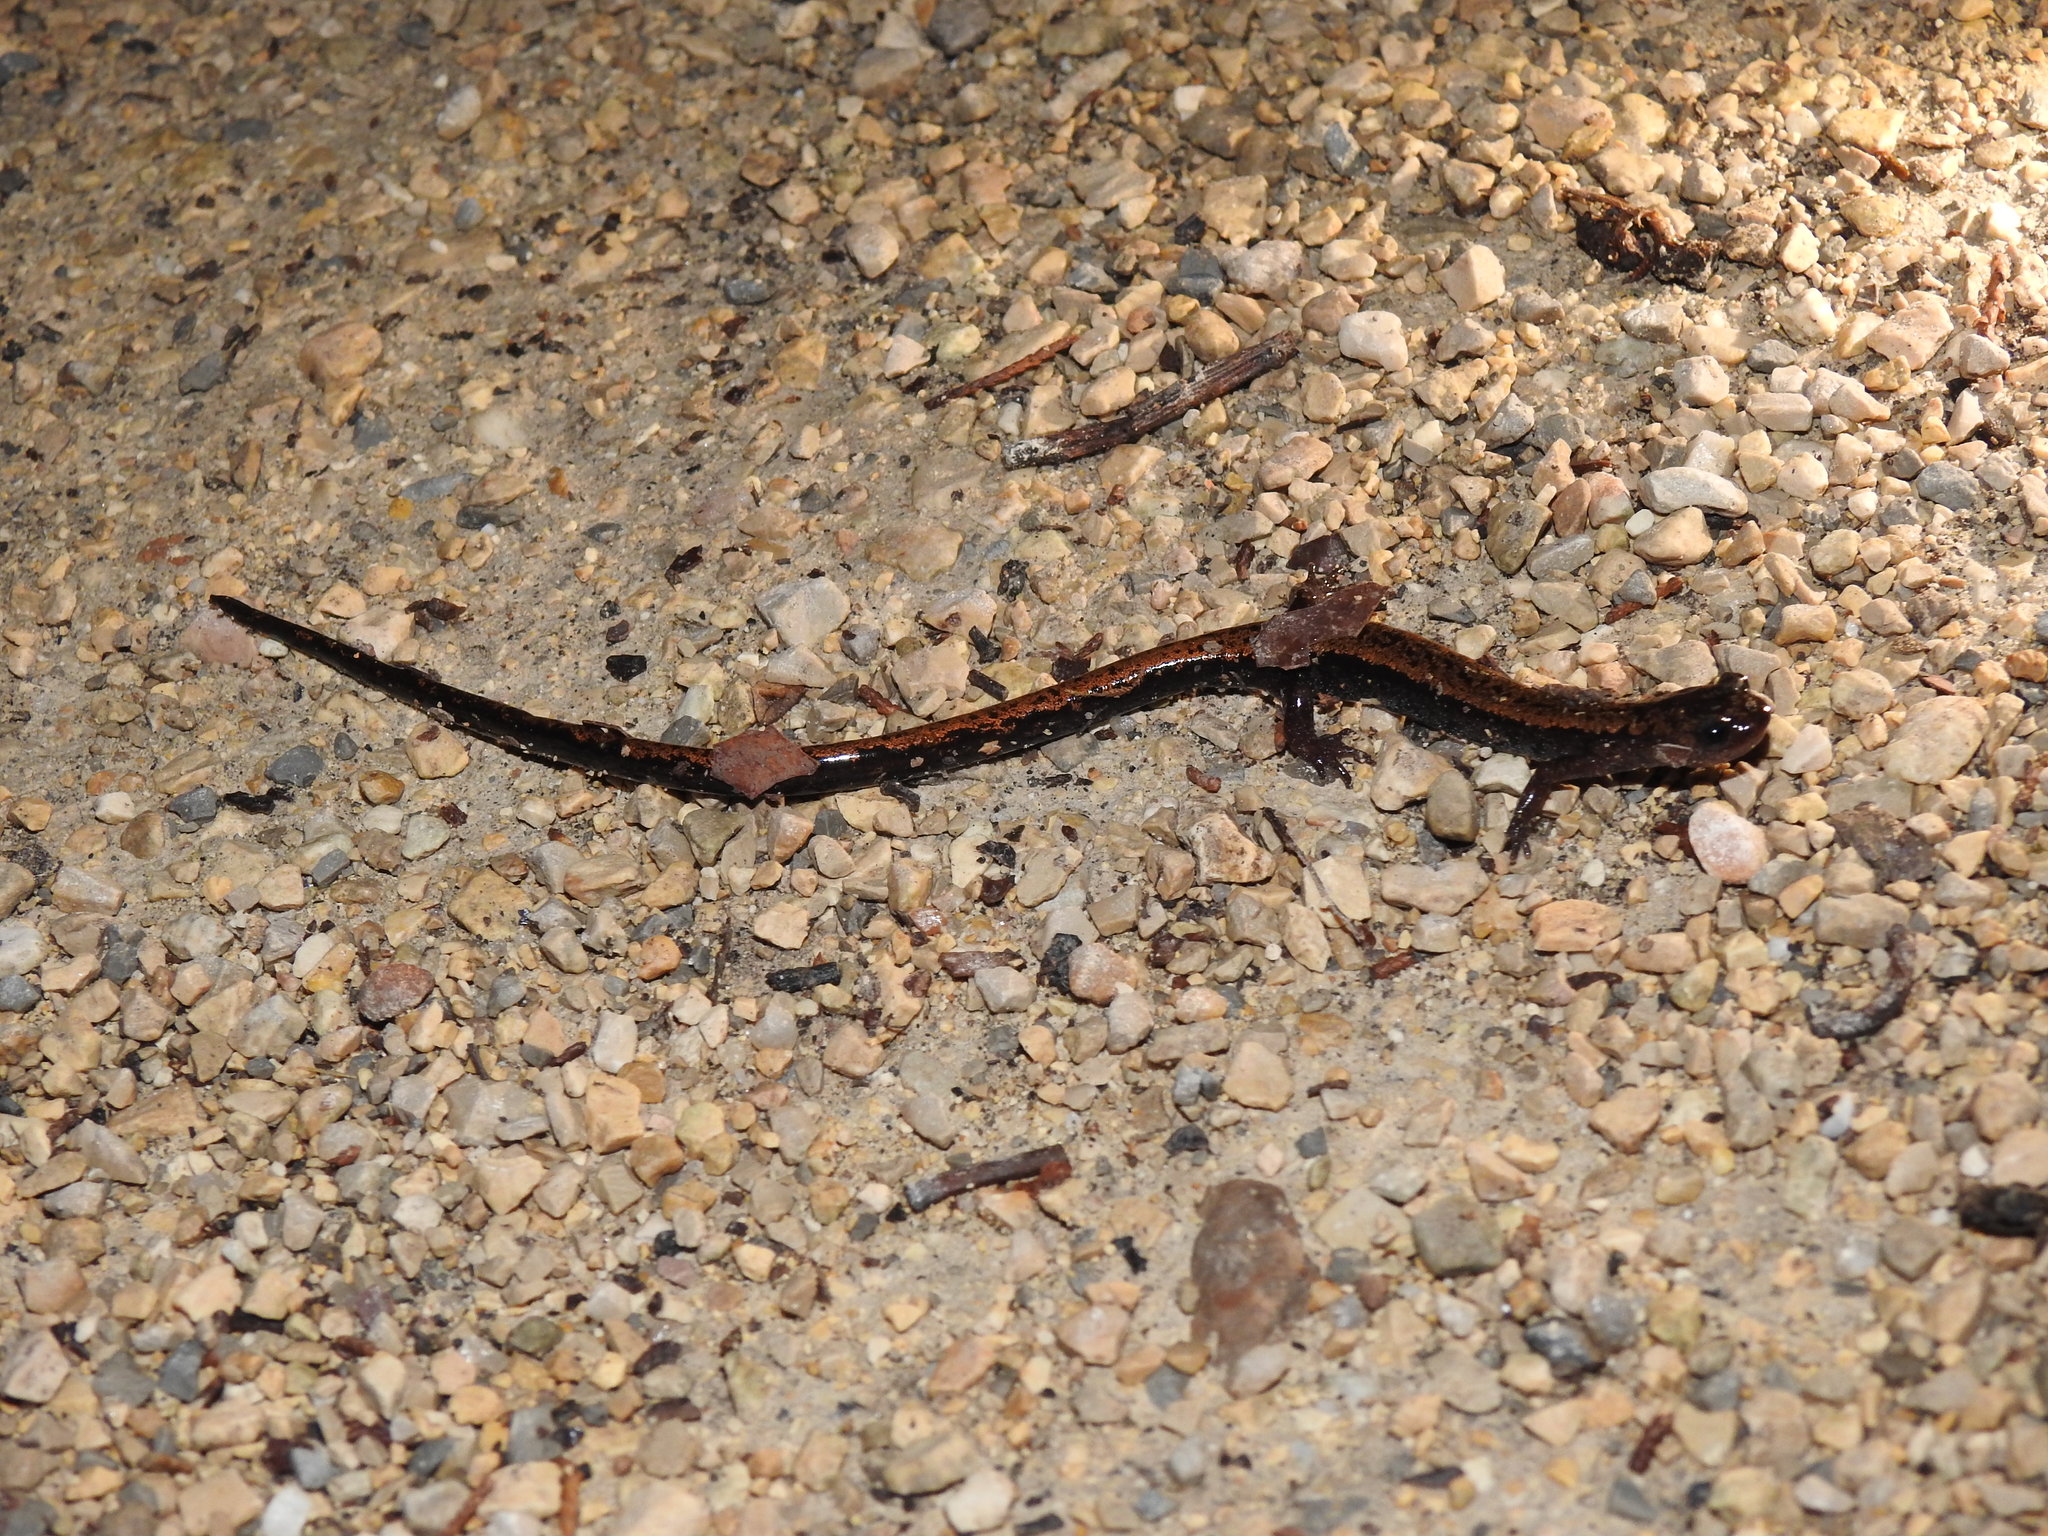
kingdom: Animalia
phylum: Chordata
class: Amphibia
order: Caudata
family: Salamandridae
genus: Chioglossa
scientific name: Chioglossa lusitanica
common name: Gold-striped salamander
